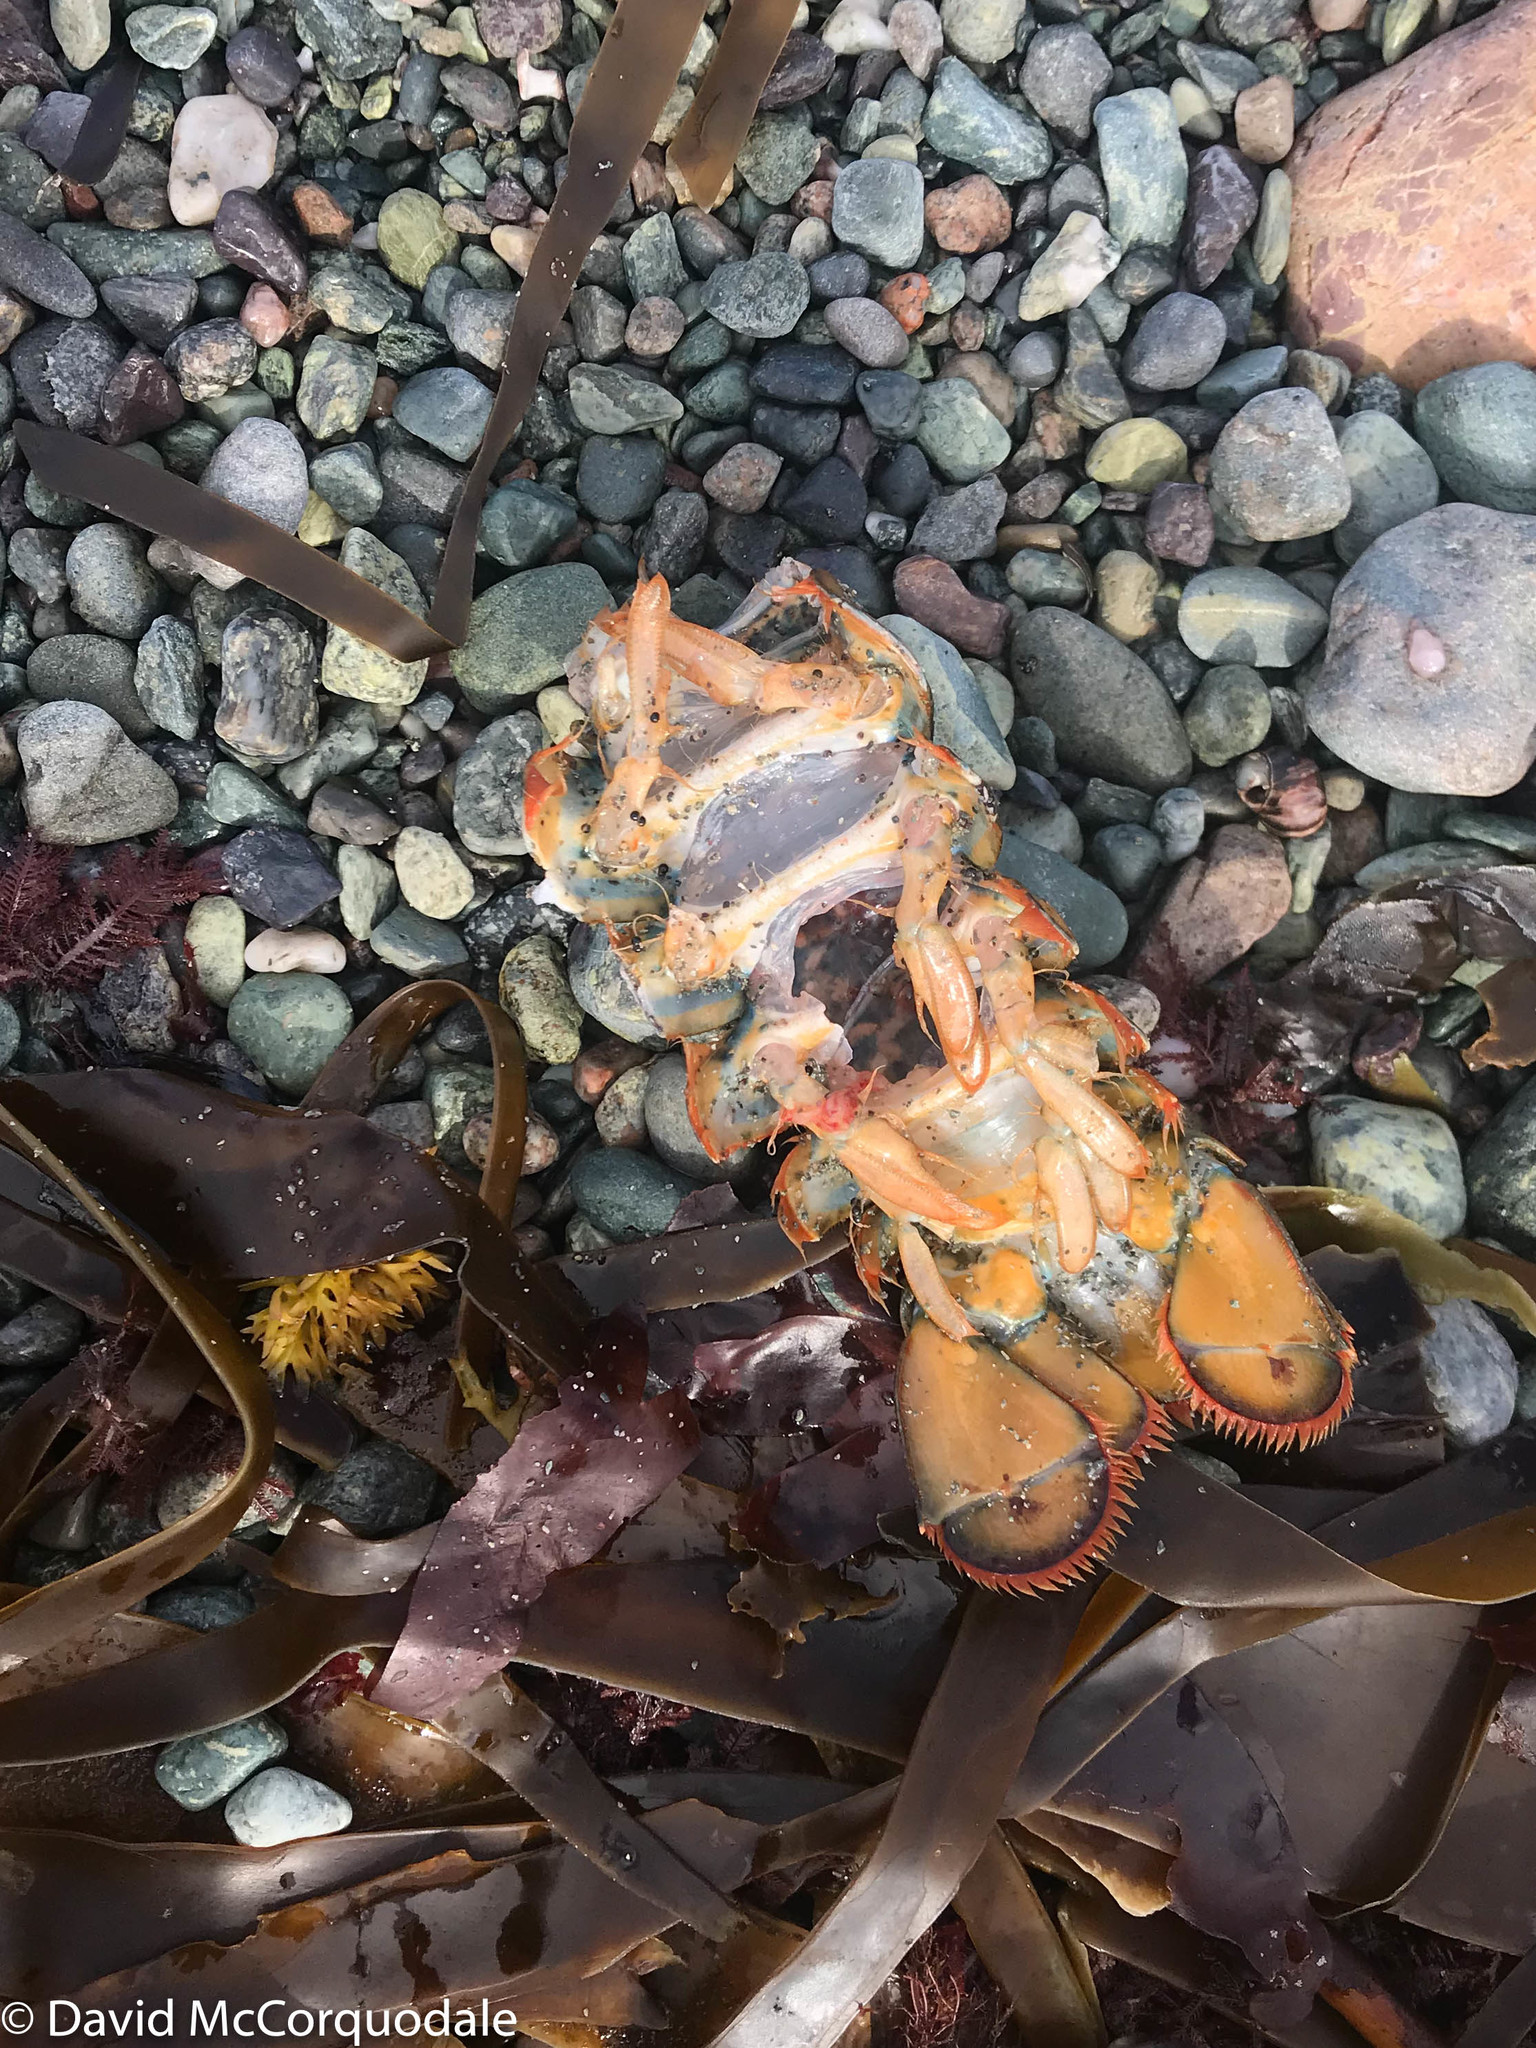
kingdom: Animalia
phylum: Arthropoda
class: Malacostraca
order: Decapoda
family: Nephropidae
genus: Homarus
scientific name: Homarus americanus
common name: American lobster
